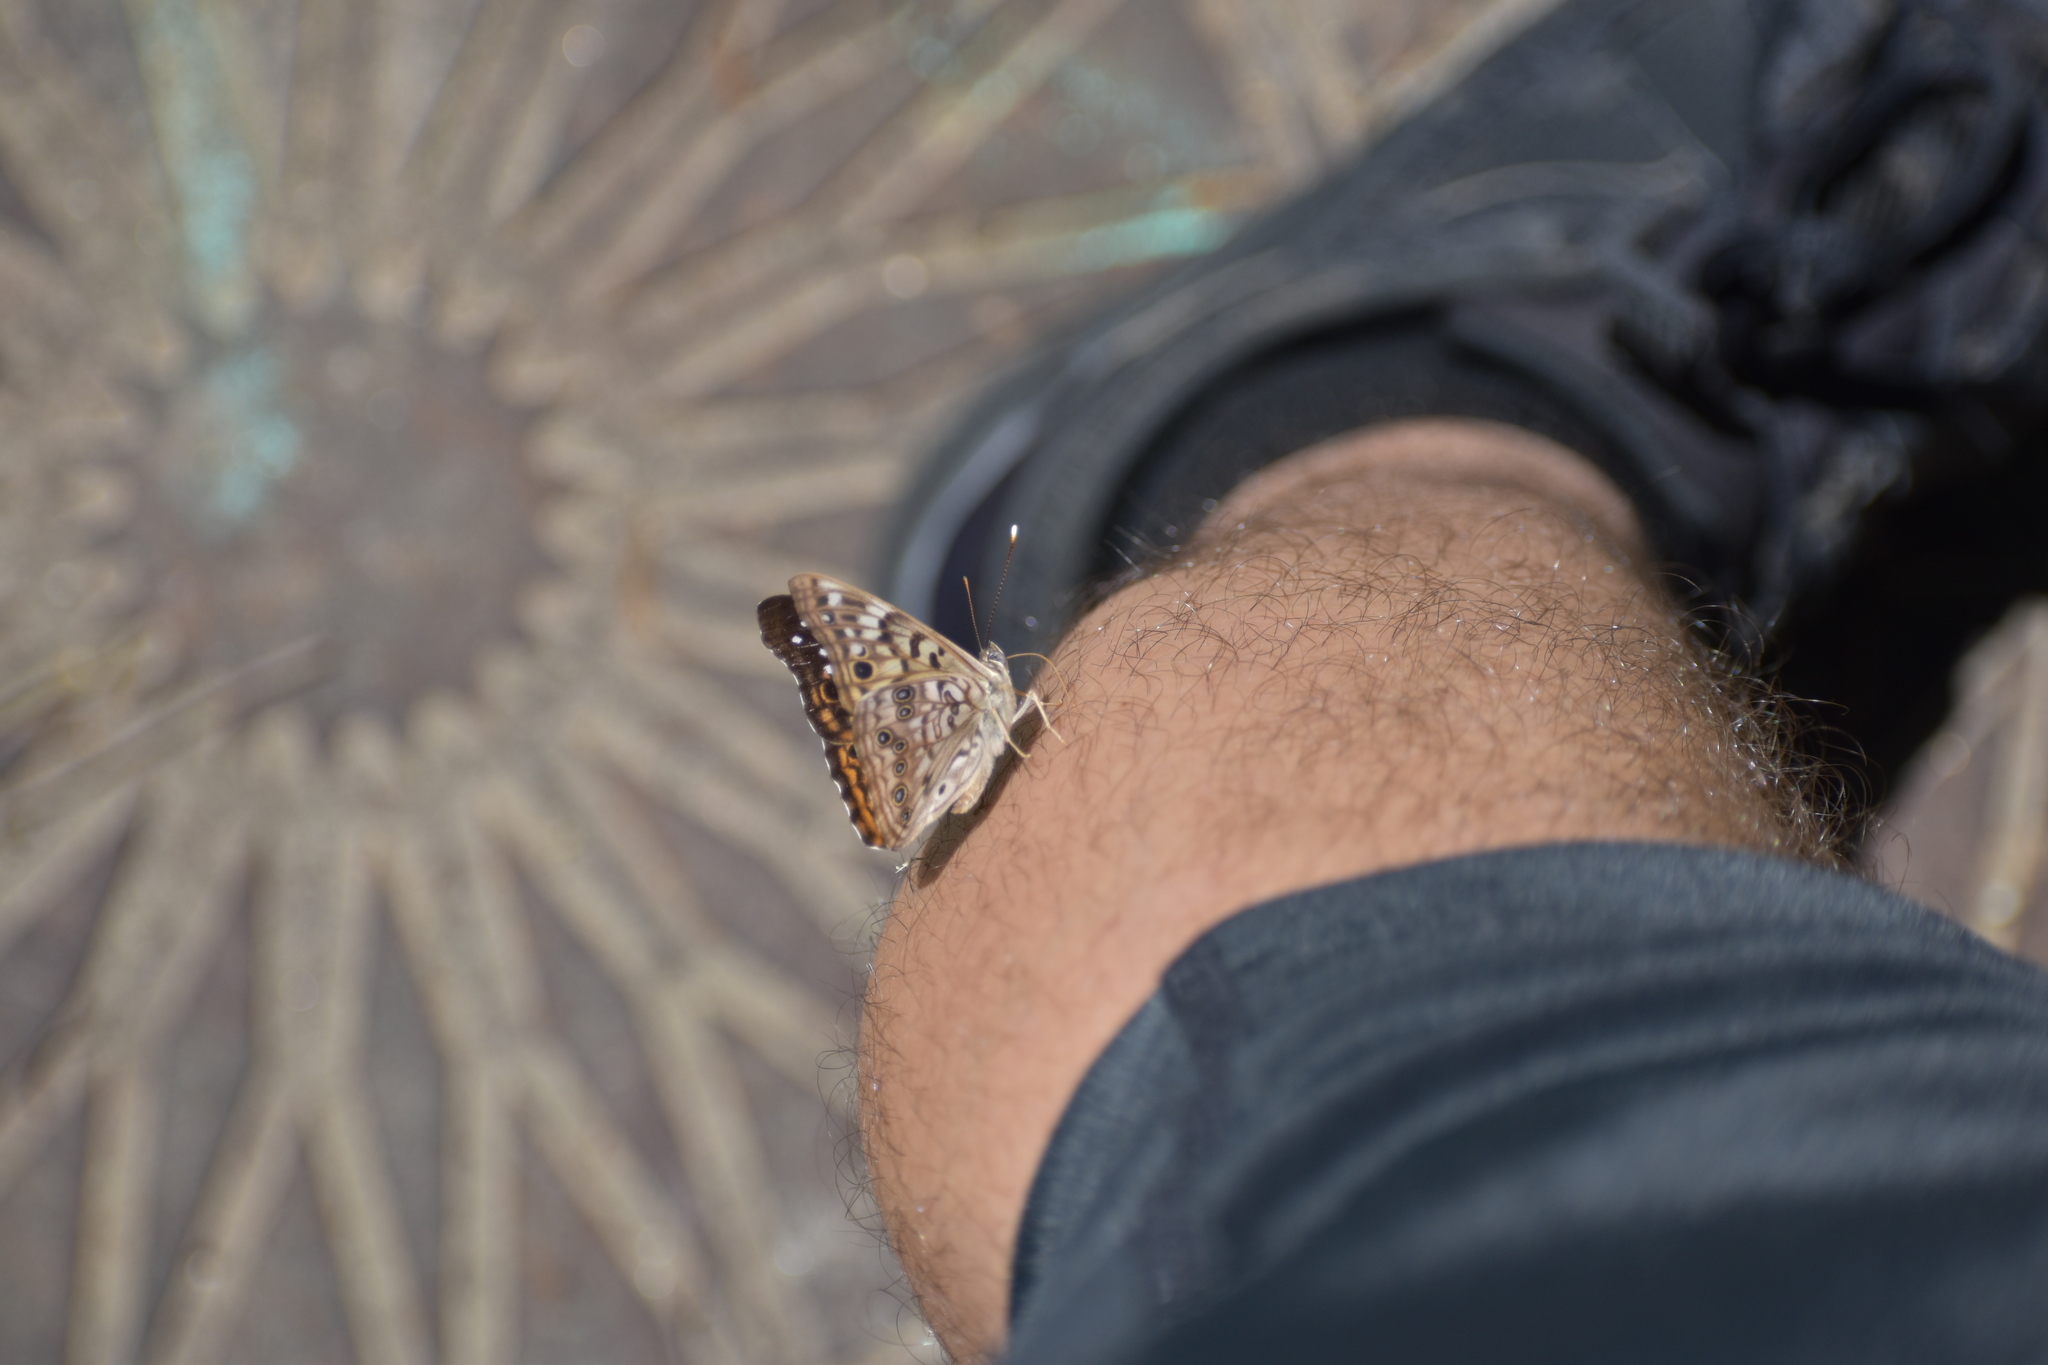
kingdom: Animalia
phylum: Arthropoda
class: Insecta
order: Lepidoptera
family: Nymphalidae
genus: Asterocampa
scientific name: Asterocampa celtis
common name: Hackberry emperor
